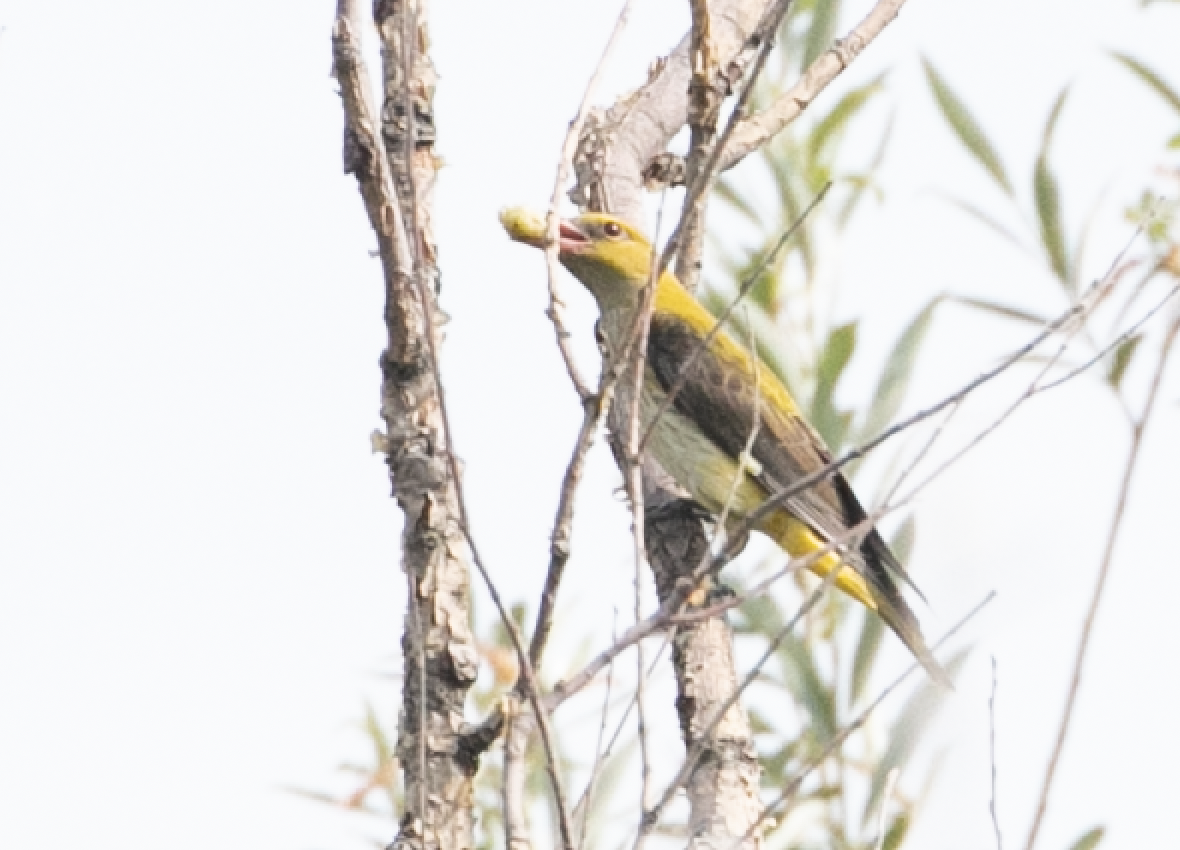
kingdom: Animalia
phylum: Chordata
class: Aves
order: Passeriformes
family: Oriolidae
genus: Oriolus
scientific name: Oriolus oriolus
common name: Eurasian golden oriole
